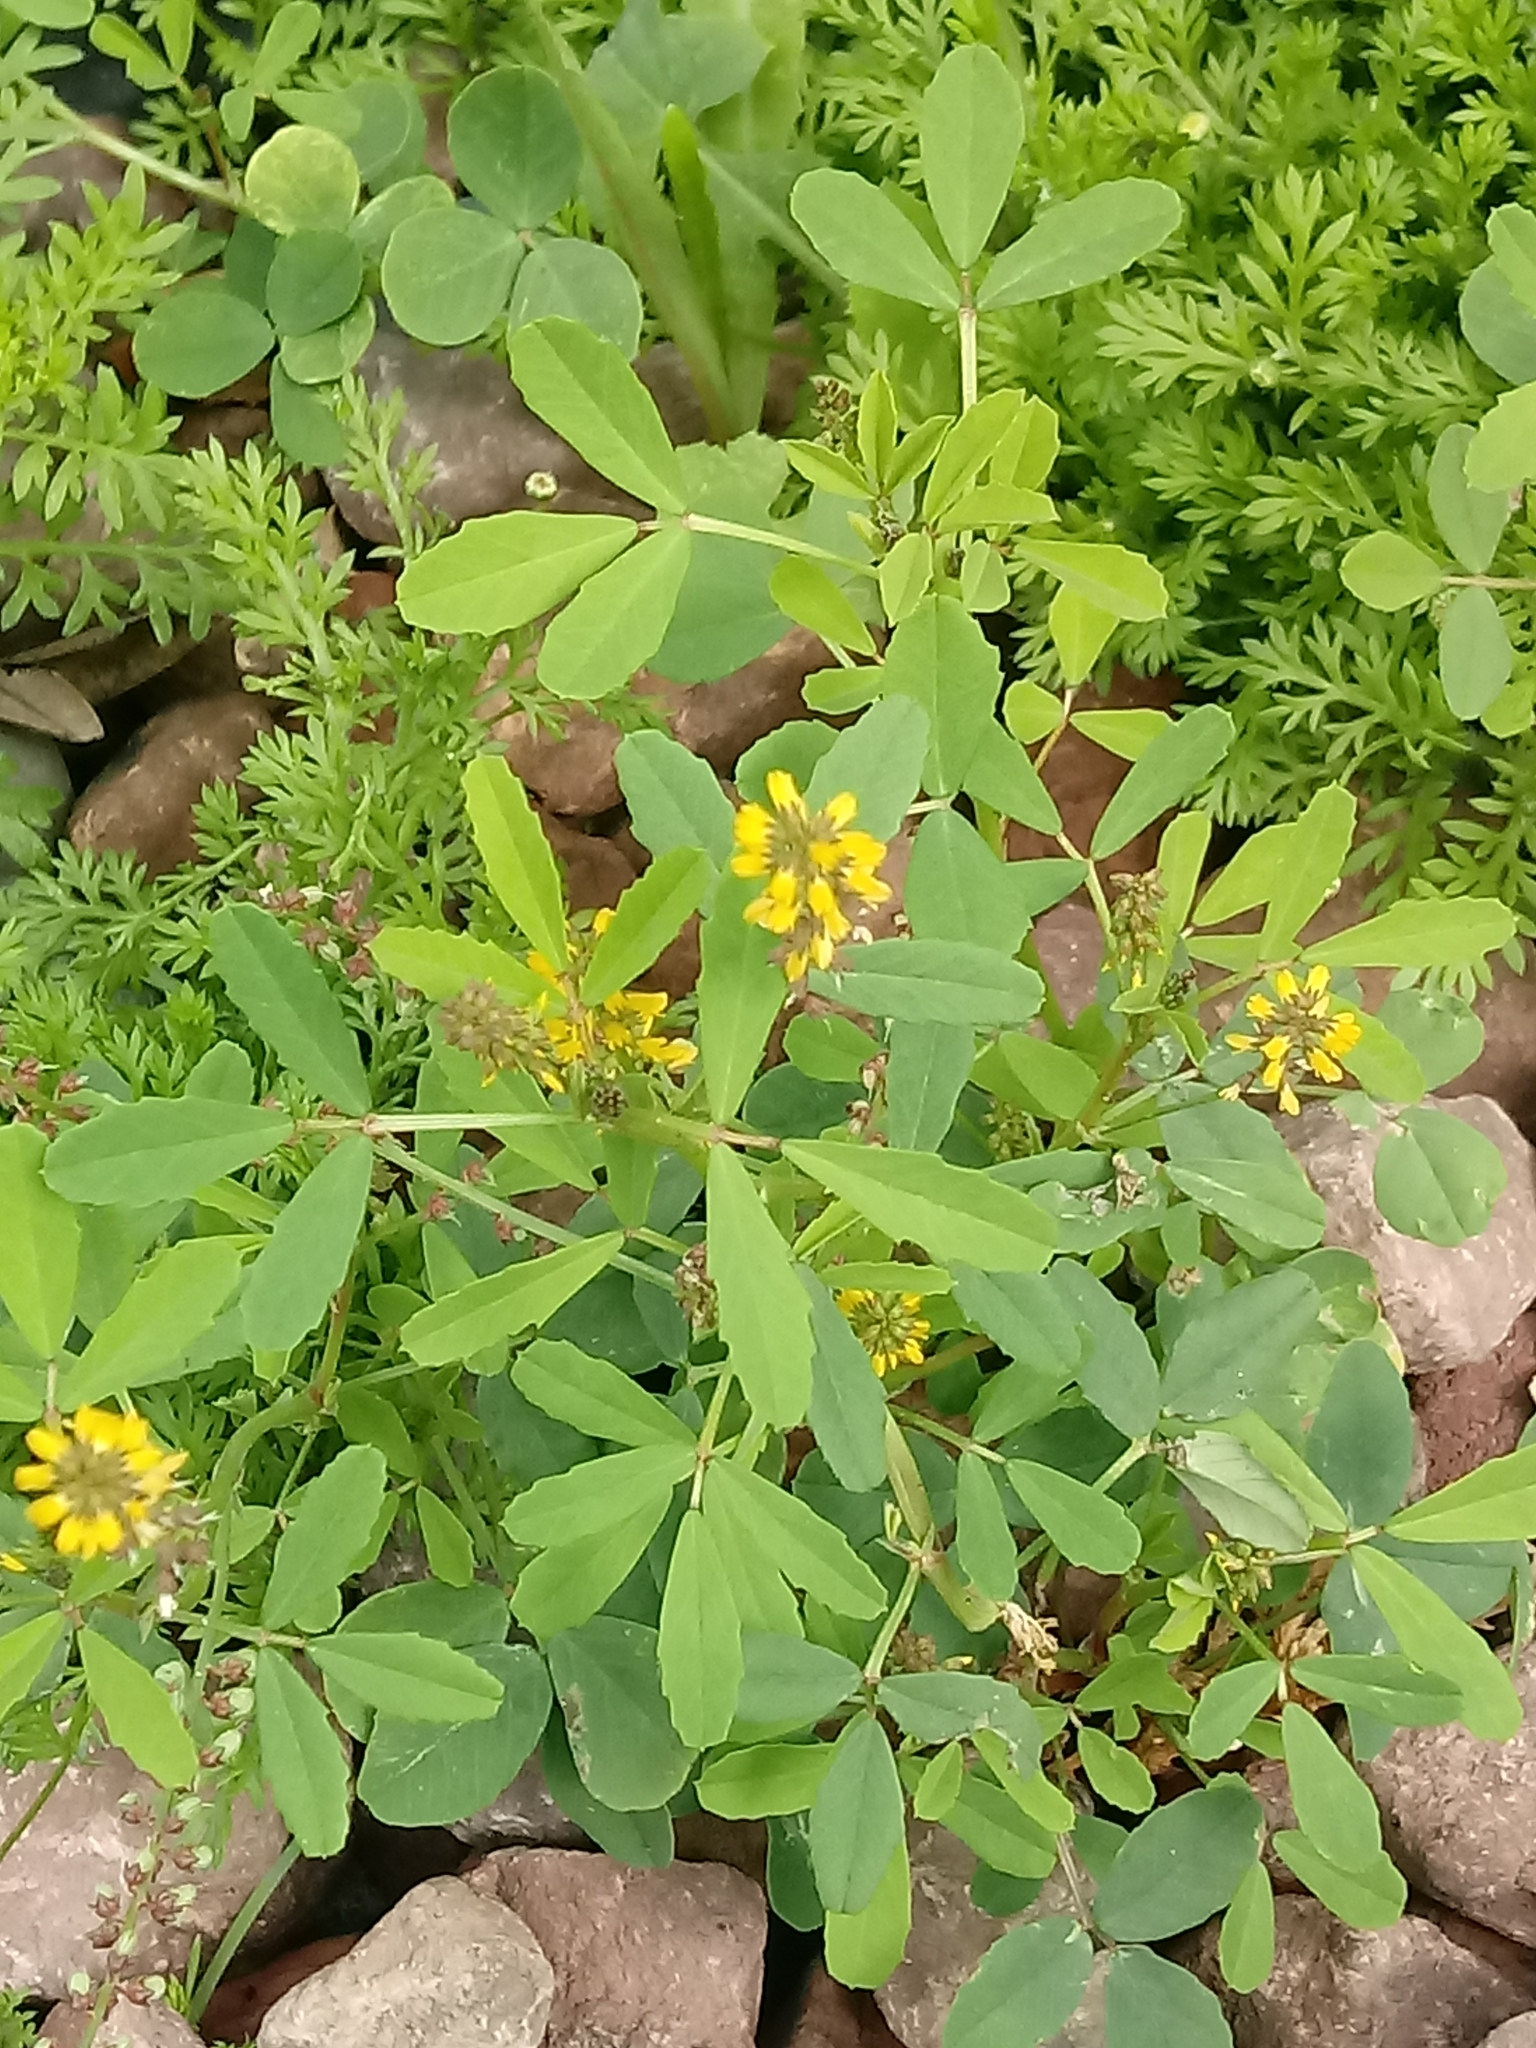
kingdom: Plantae
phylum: Tracheophyta
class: Magnoliopsida
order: Fabales
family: Fabaceae
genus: Melilotus
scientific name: Melilotus indicus
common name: Small melilot
